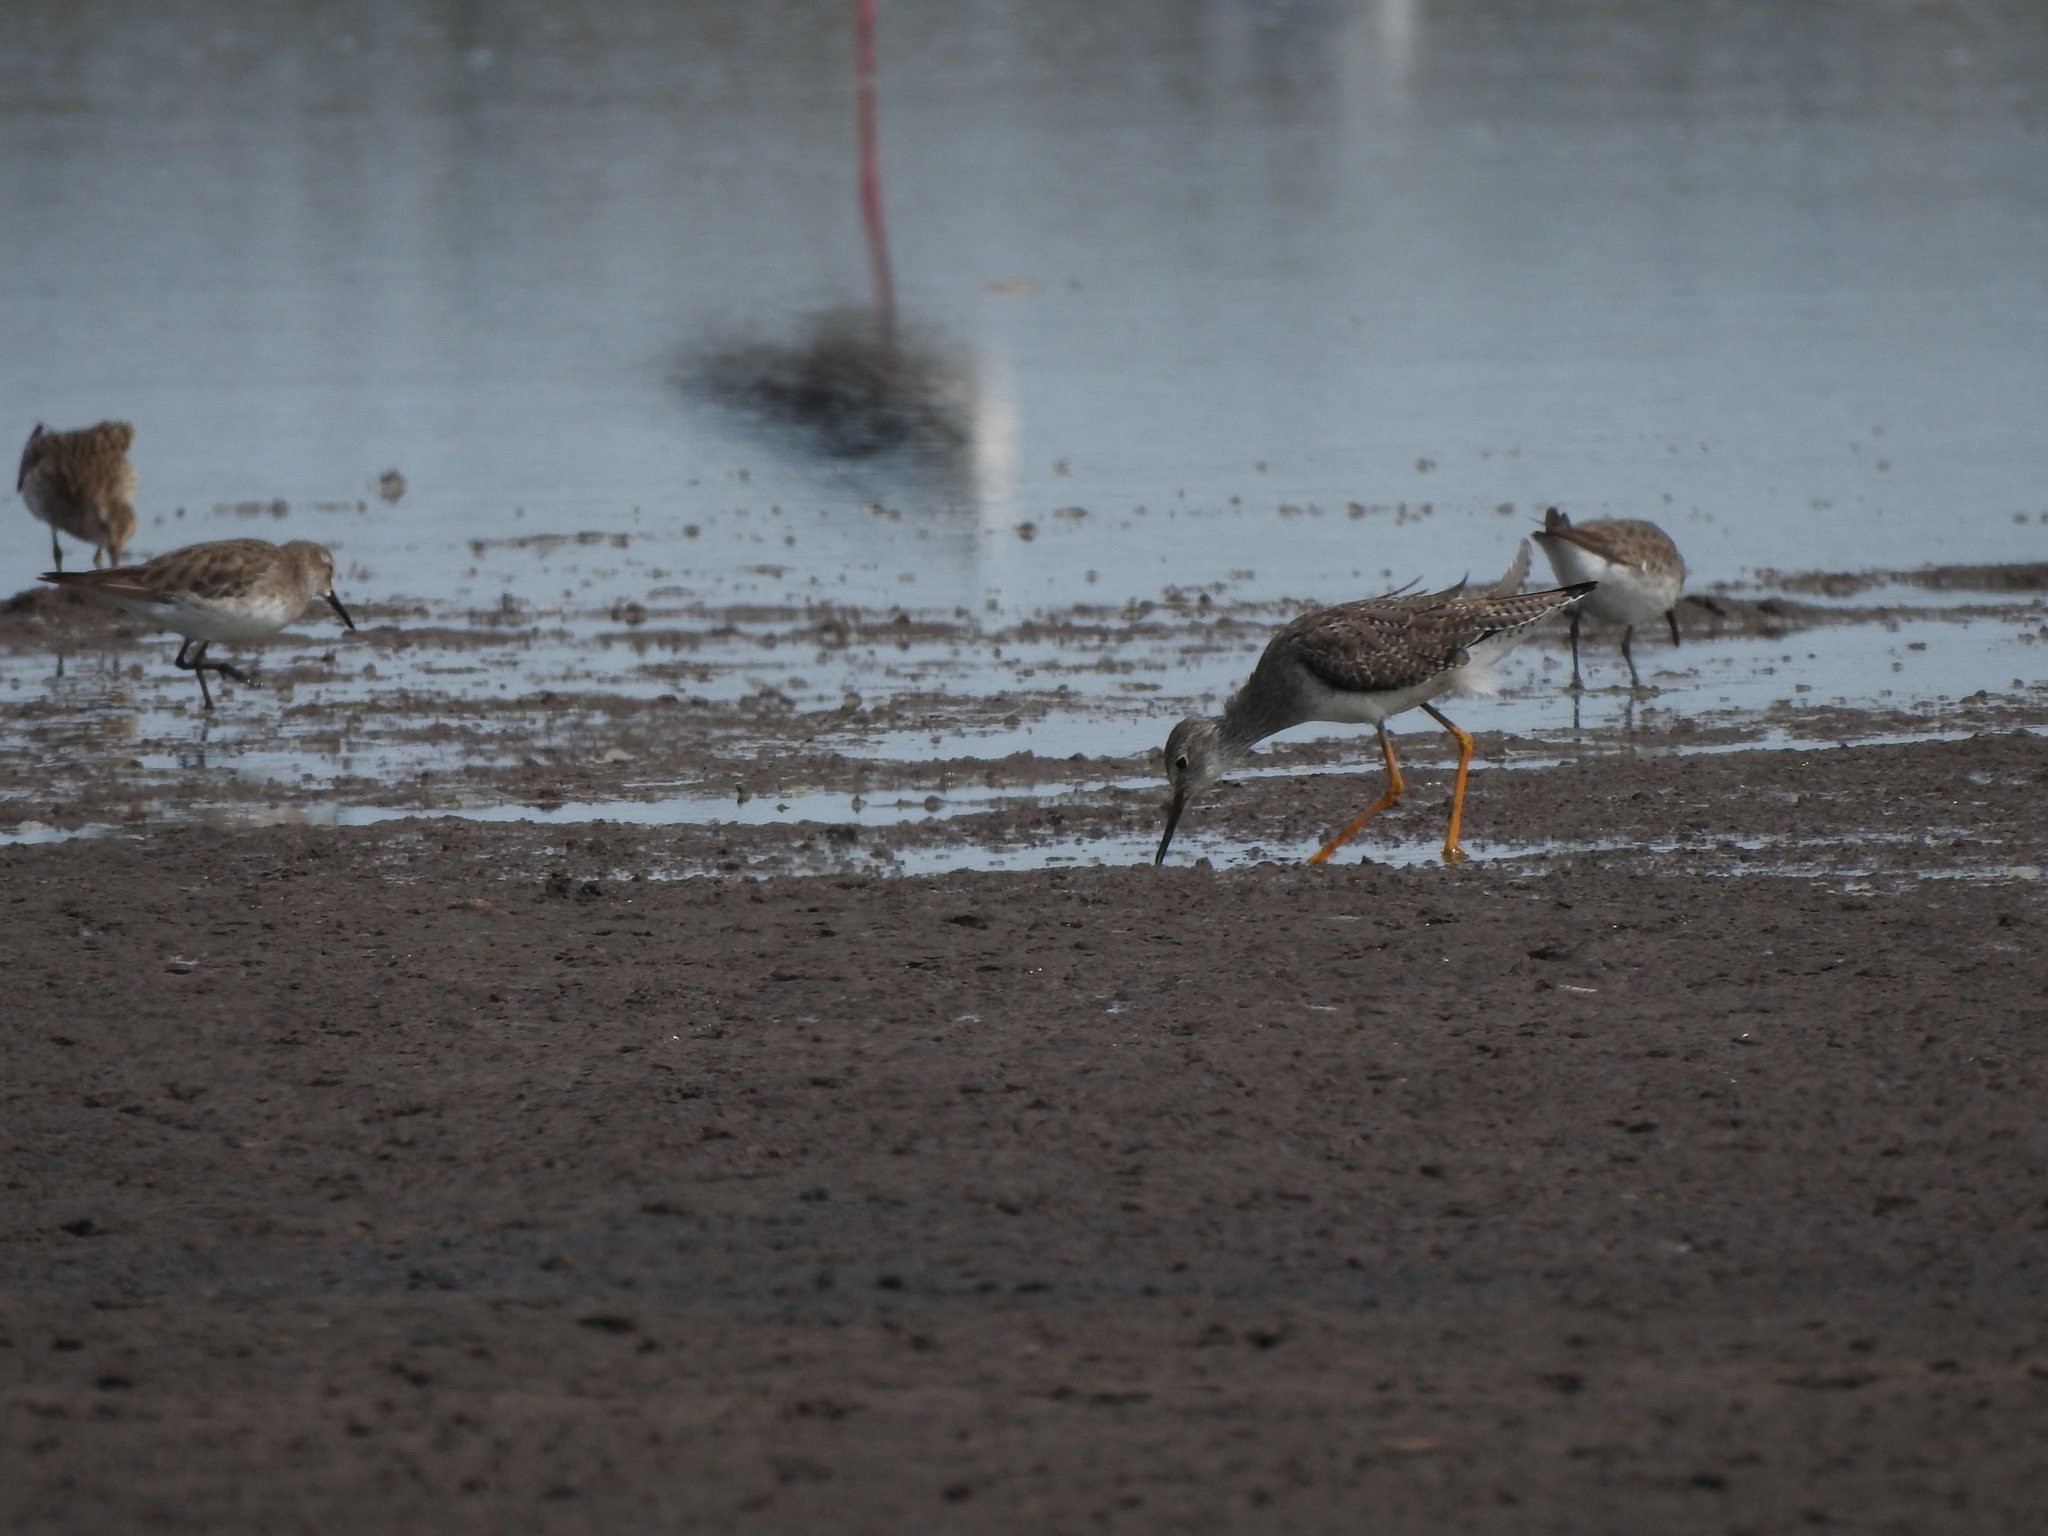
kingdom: Animalia
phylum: Chordata
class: Aves
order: Charadriiformes
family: Scolopacidae
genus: Calidris
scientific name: Calidris fuscicollis
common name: White-rumped sandpiper
